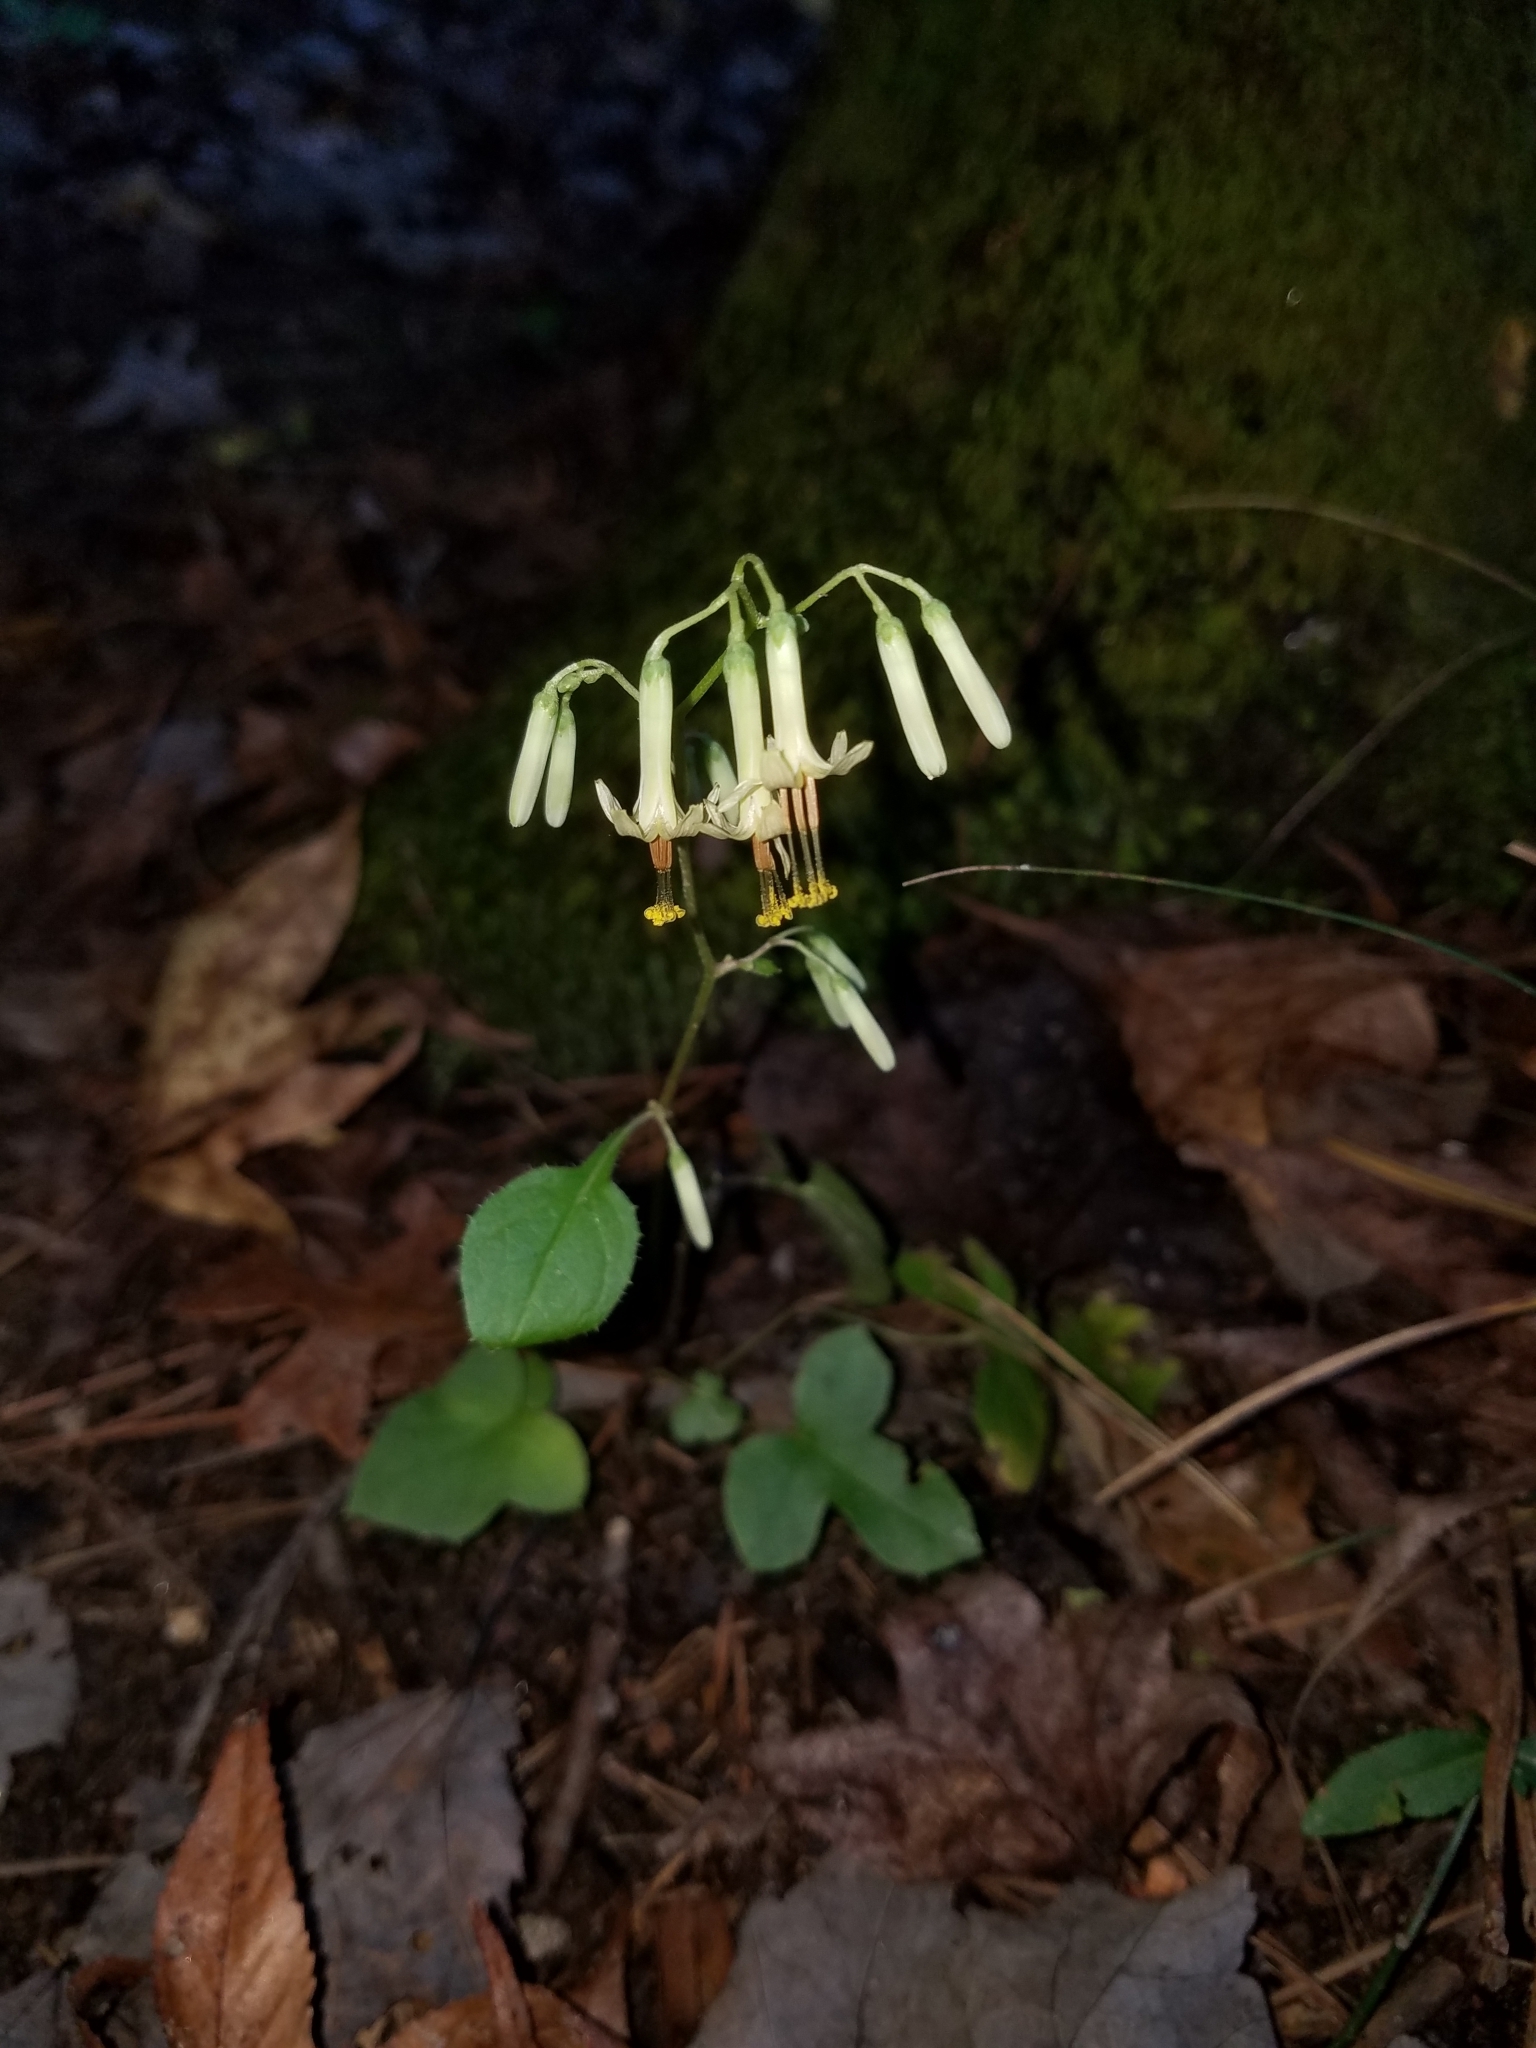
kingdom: Plantae
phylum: Tracheophyta
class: Magnoliopsida
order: Asterales
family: Asteraceae
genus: Nabalus
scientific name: Nabalus altissima
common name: Tall rattlesnakeroot
